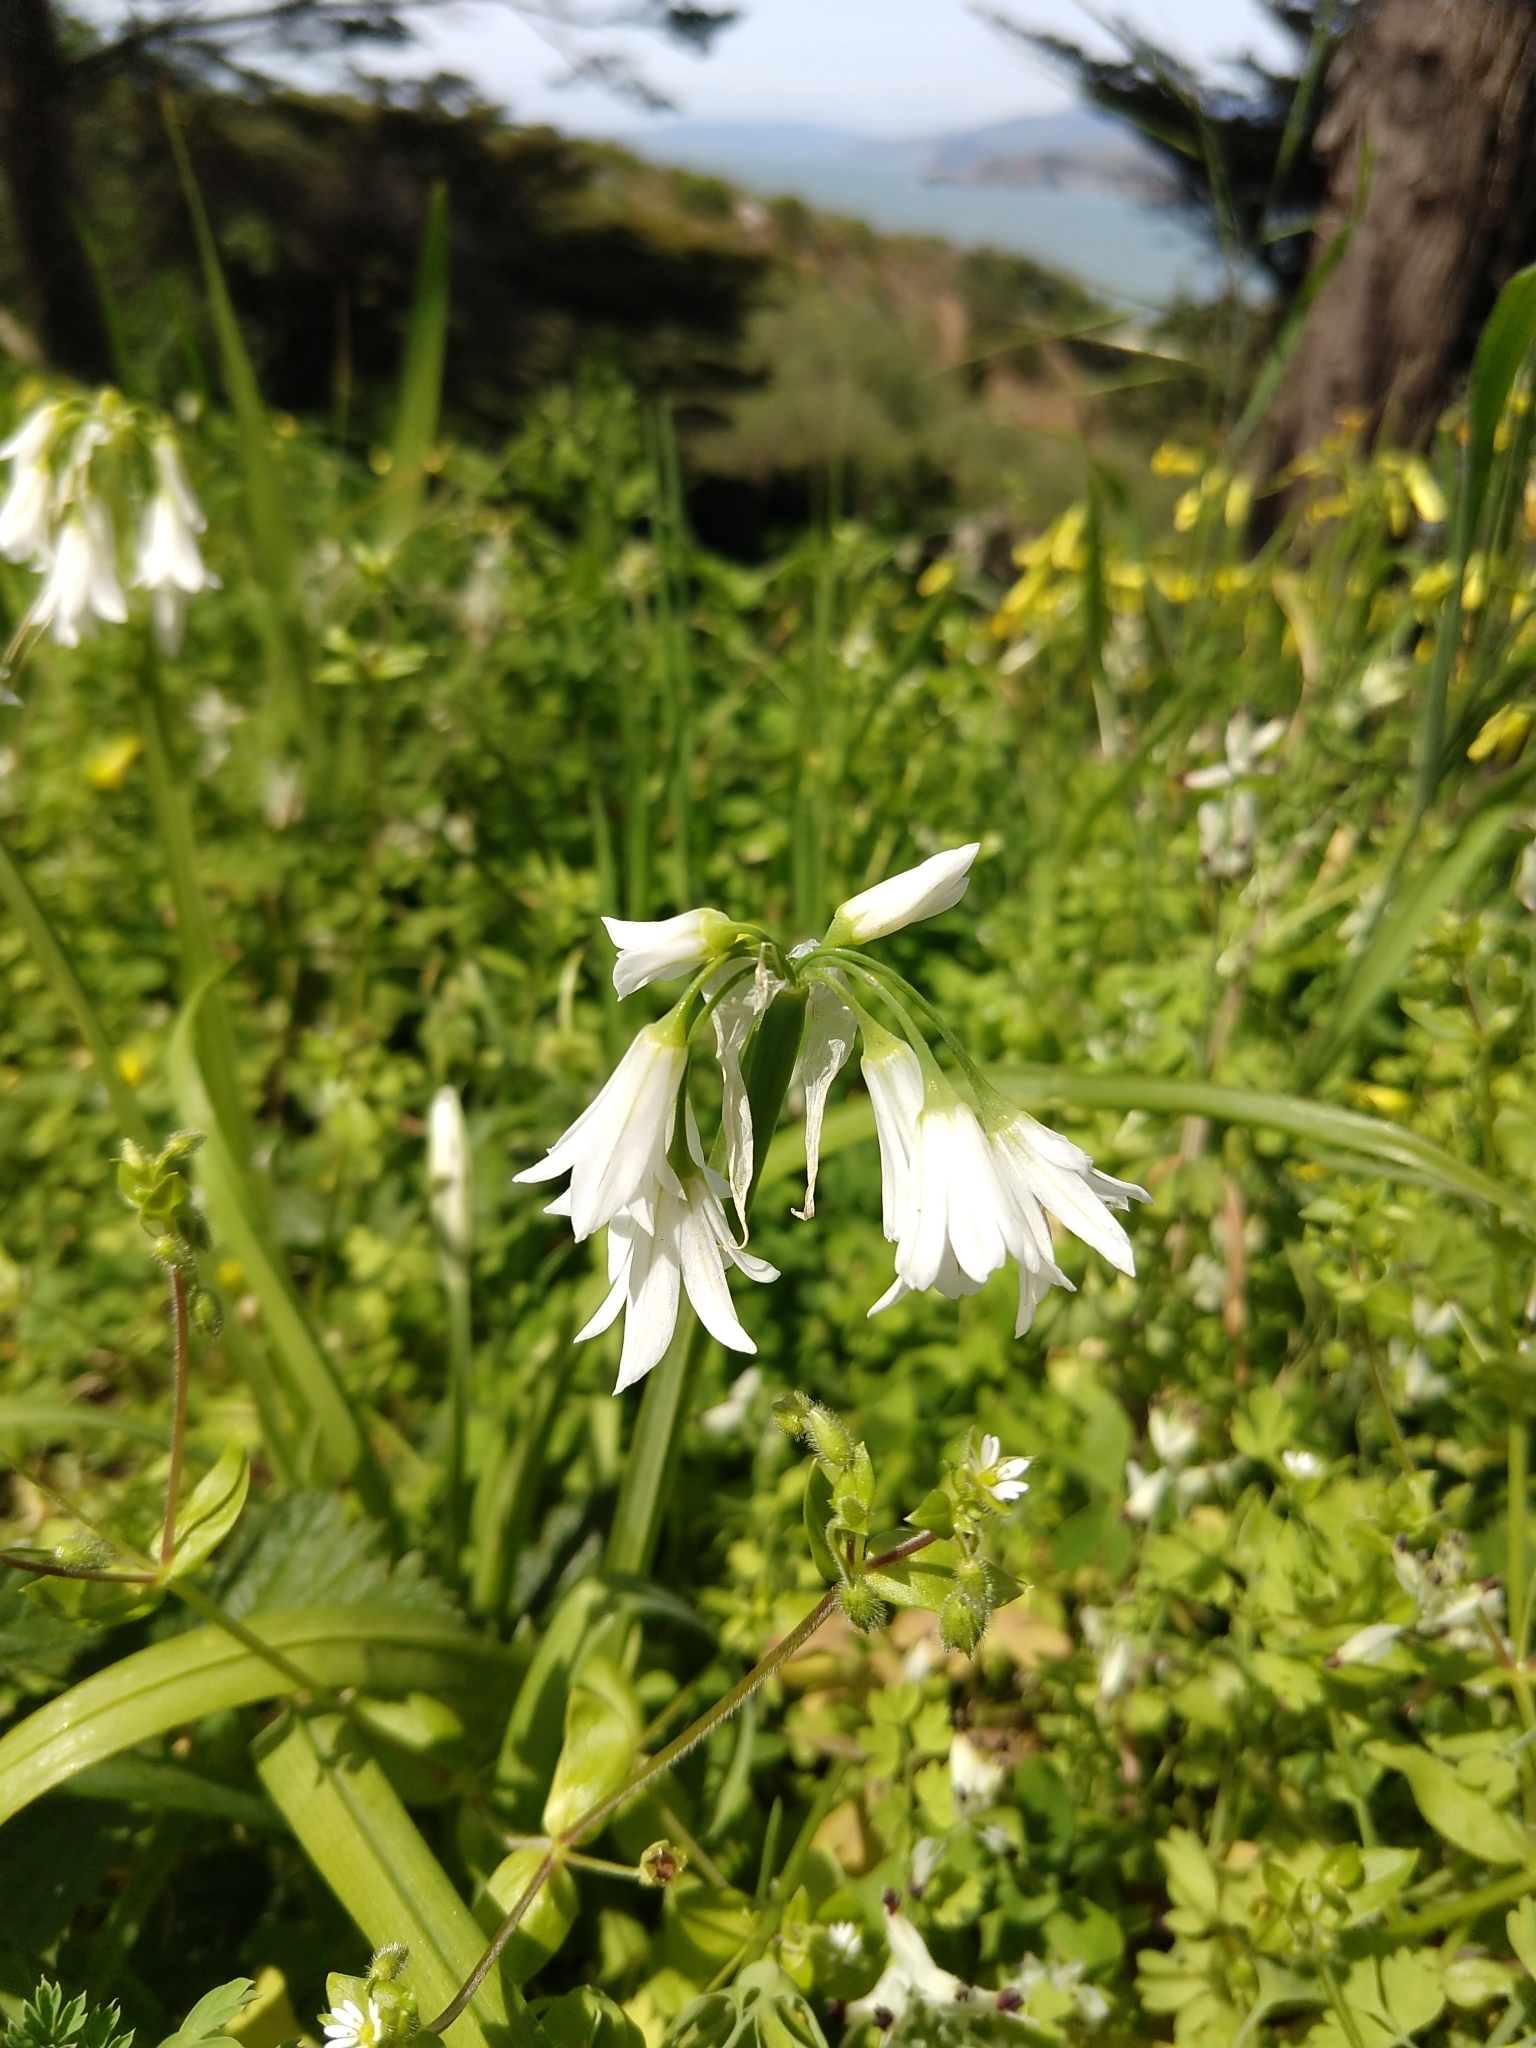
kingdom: Plantae
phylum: Tracheophyta
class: Liliopsida
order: Asparagales
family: Amaryllidaceae
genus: Allium
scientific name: Allium triquetrum
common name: Three-cornered garlic
